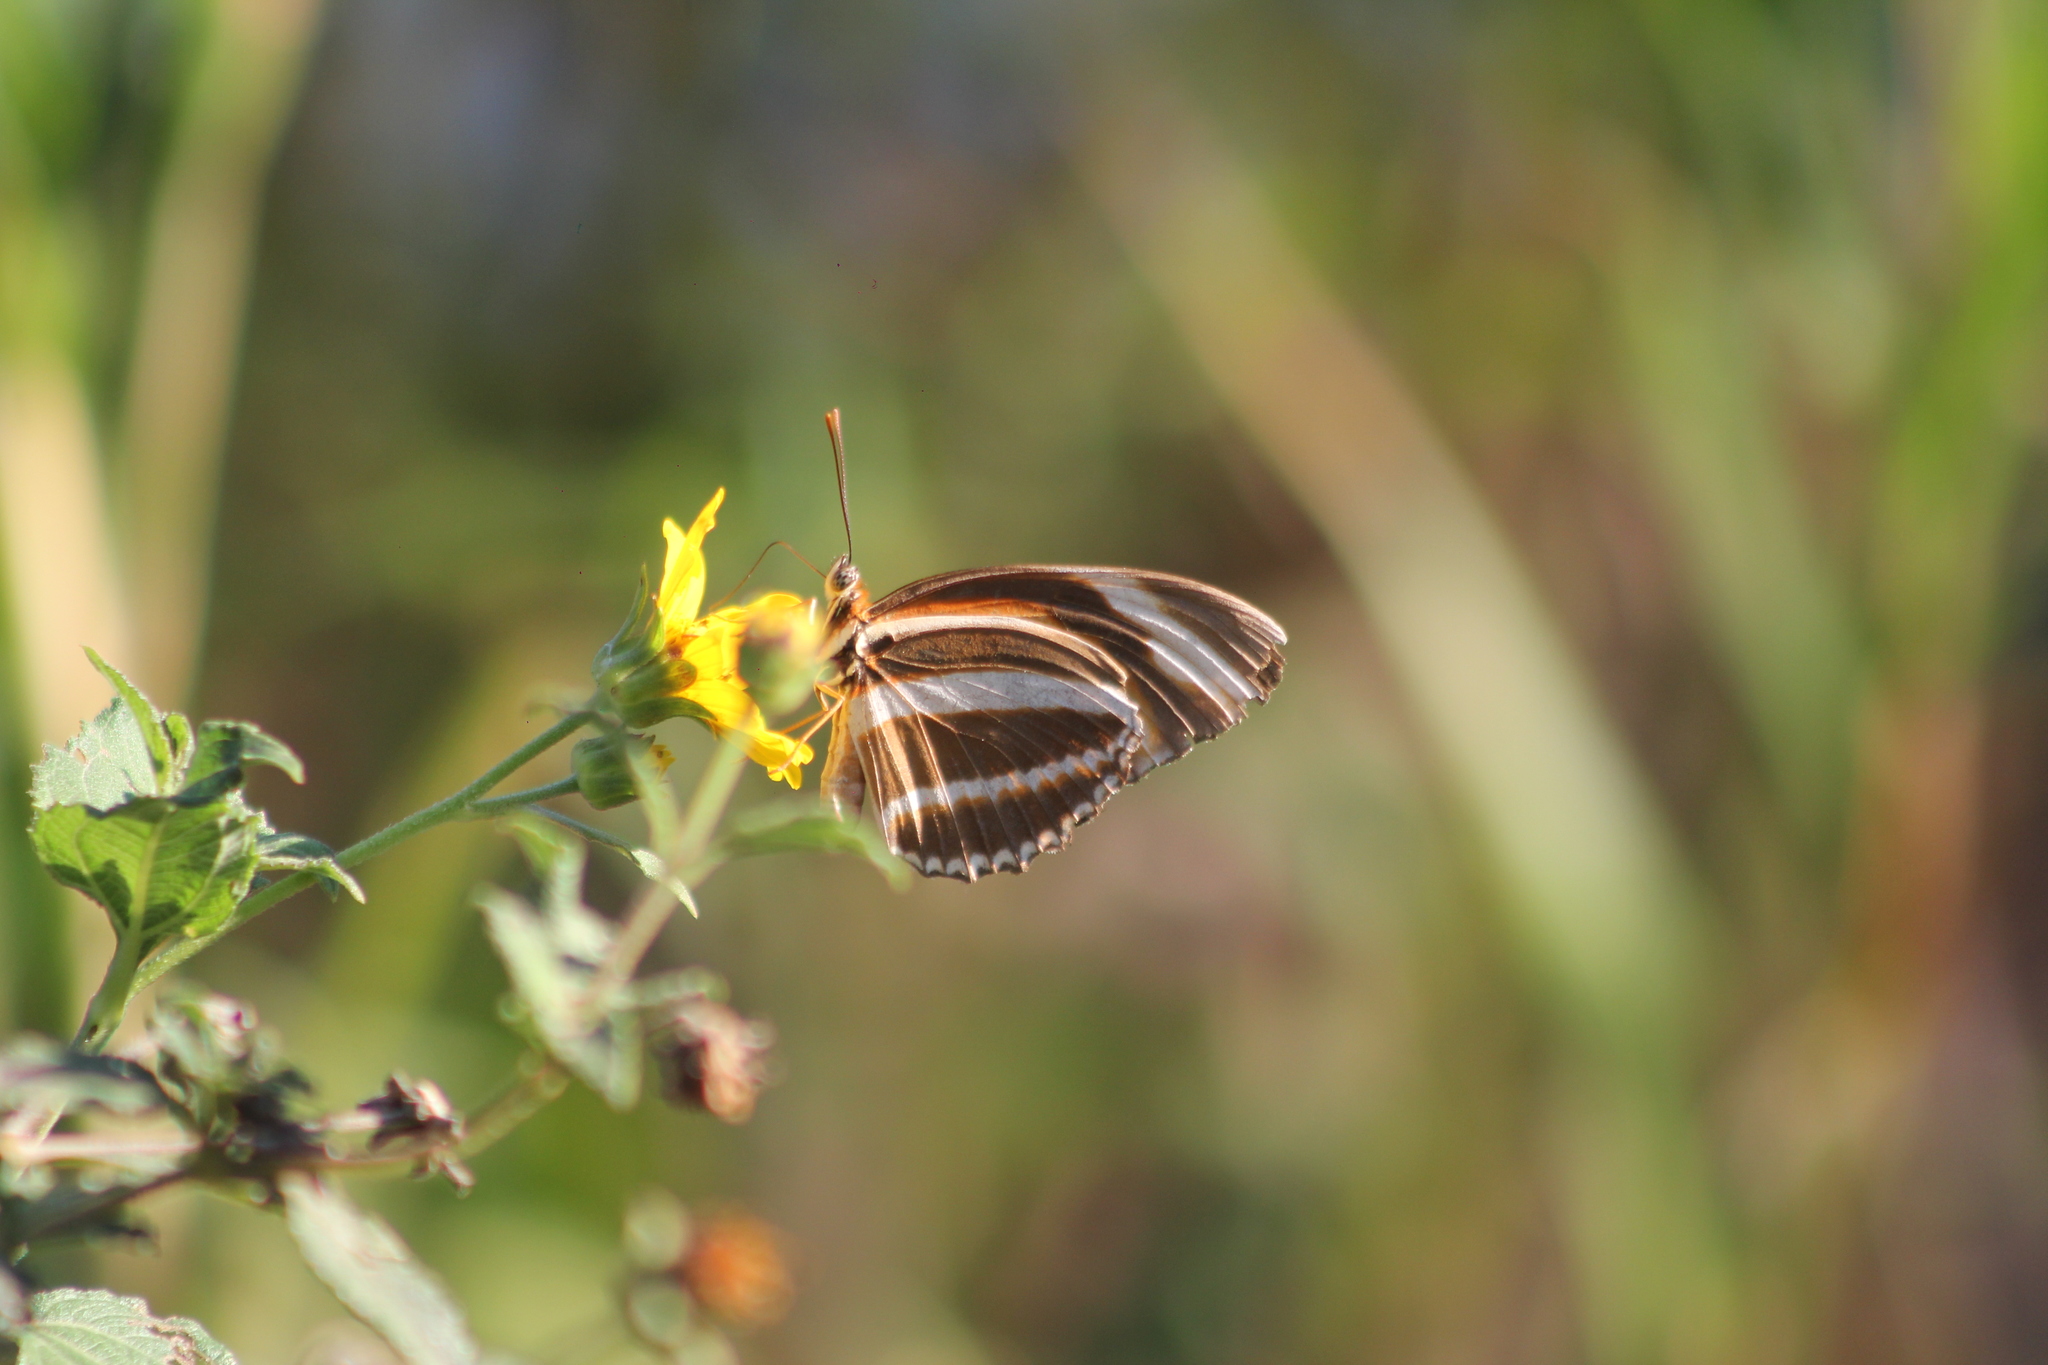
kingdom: Animalia
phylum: Arthropoda
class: Insecta
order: Lepidoptera
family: Nymphalidae
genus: Dryadula
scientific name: Dryadula phaetusa
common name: Banded orange heliconian
